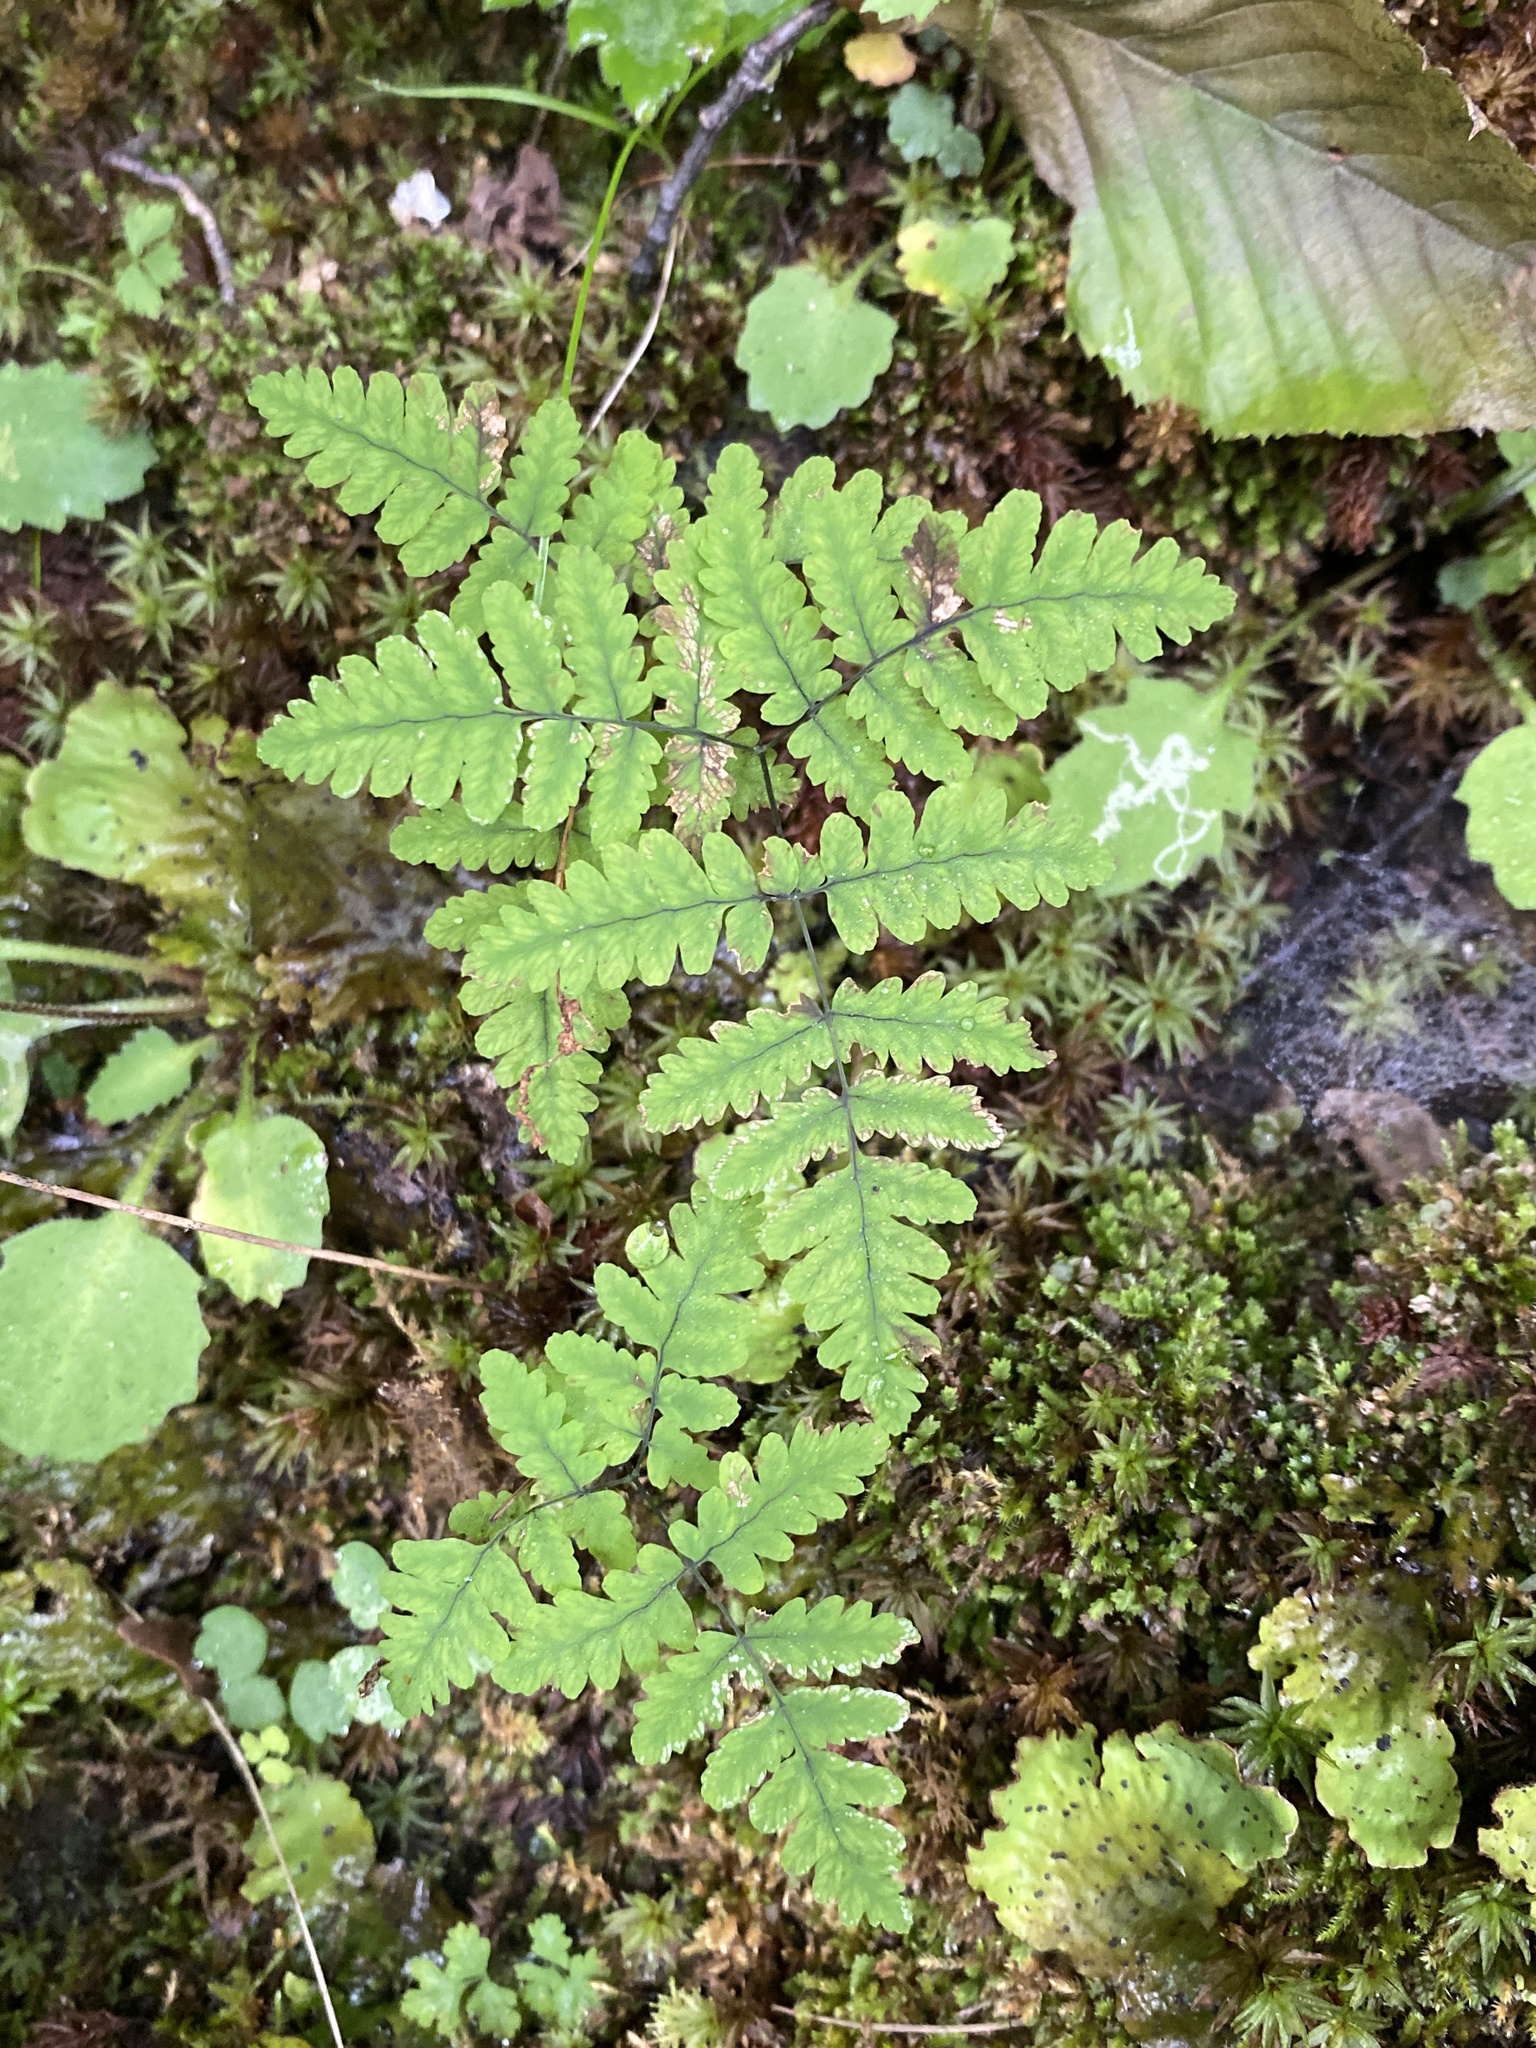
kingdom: Plantae
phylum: Tracheophyta
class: Polypodiopsida
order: Polypodiales
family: Cystopteridaceae
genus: Gymnocarpium
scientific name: Gymnocarpium appalachianum
